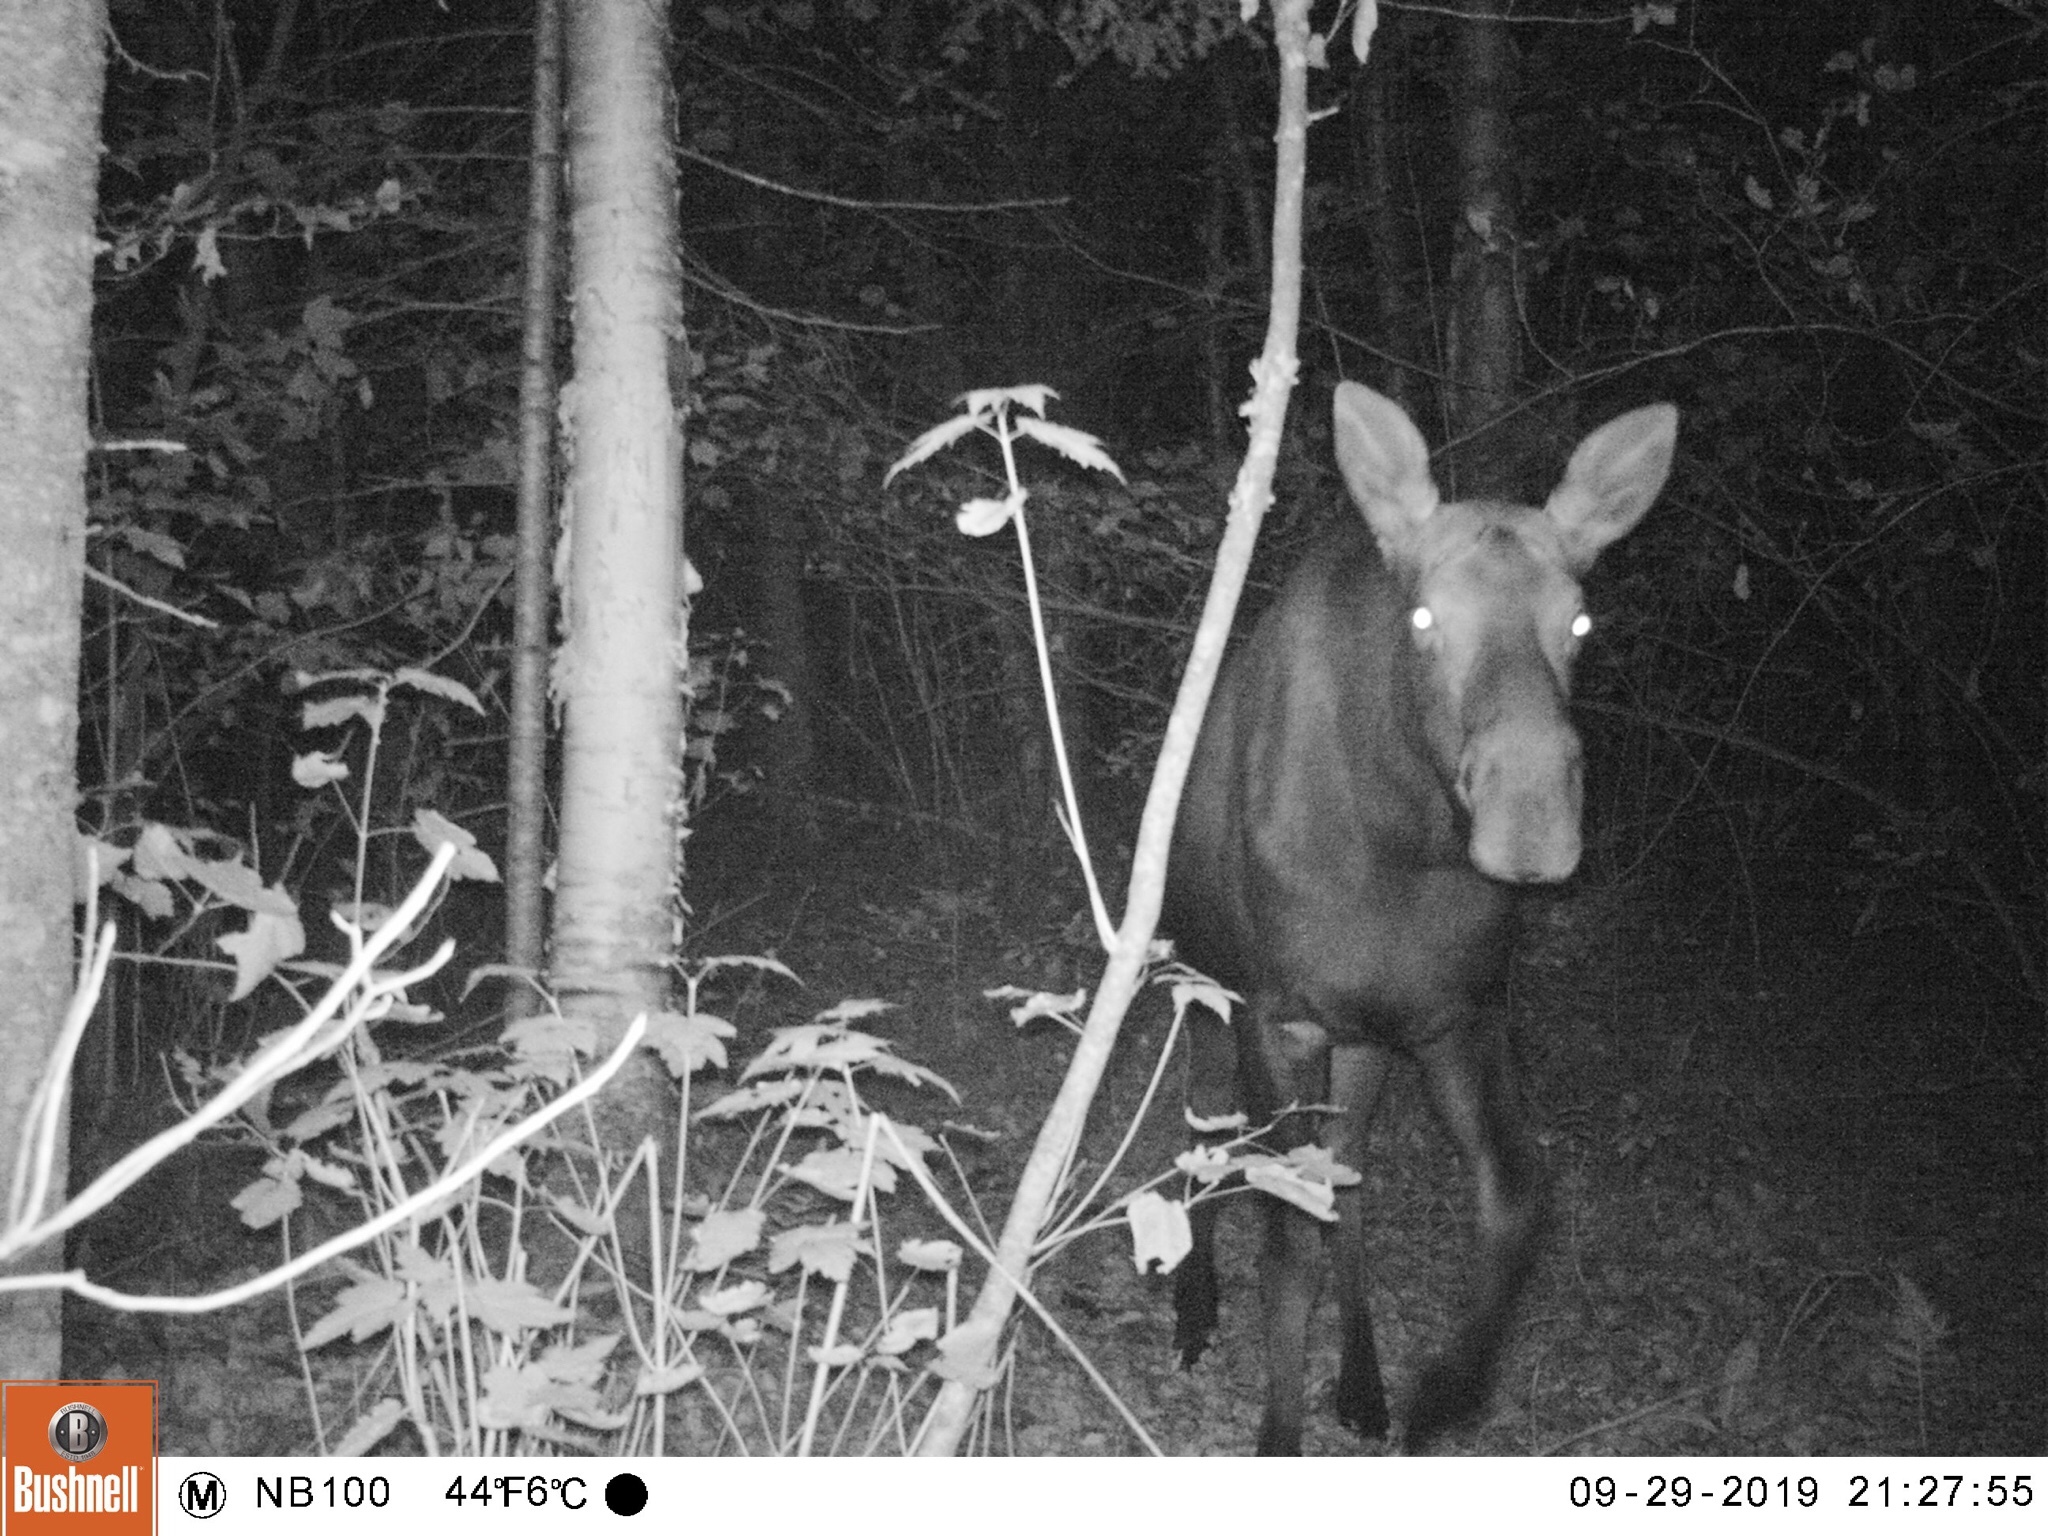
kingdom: Animalia
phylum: Chordata
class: Mammalia
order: Artiodactyla
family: Cervidae
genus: Alces
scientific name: Alces alces
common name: Moose
